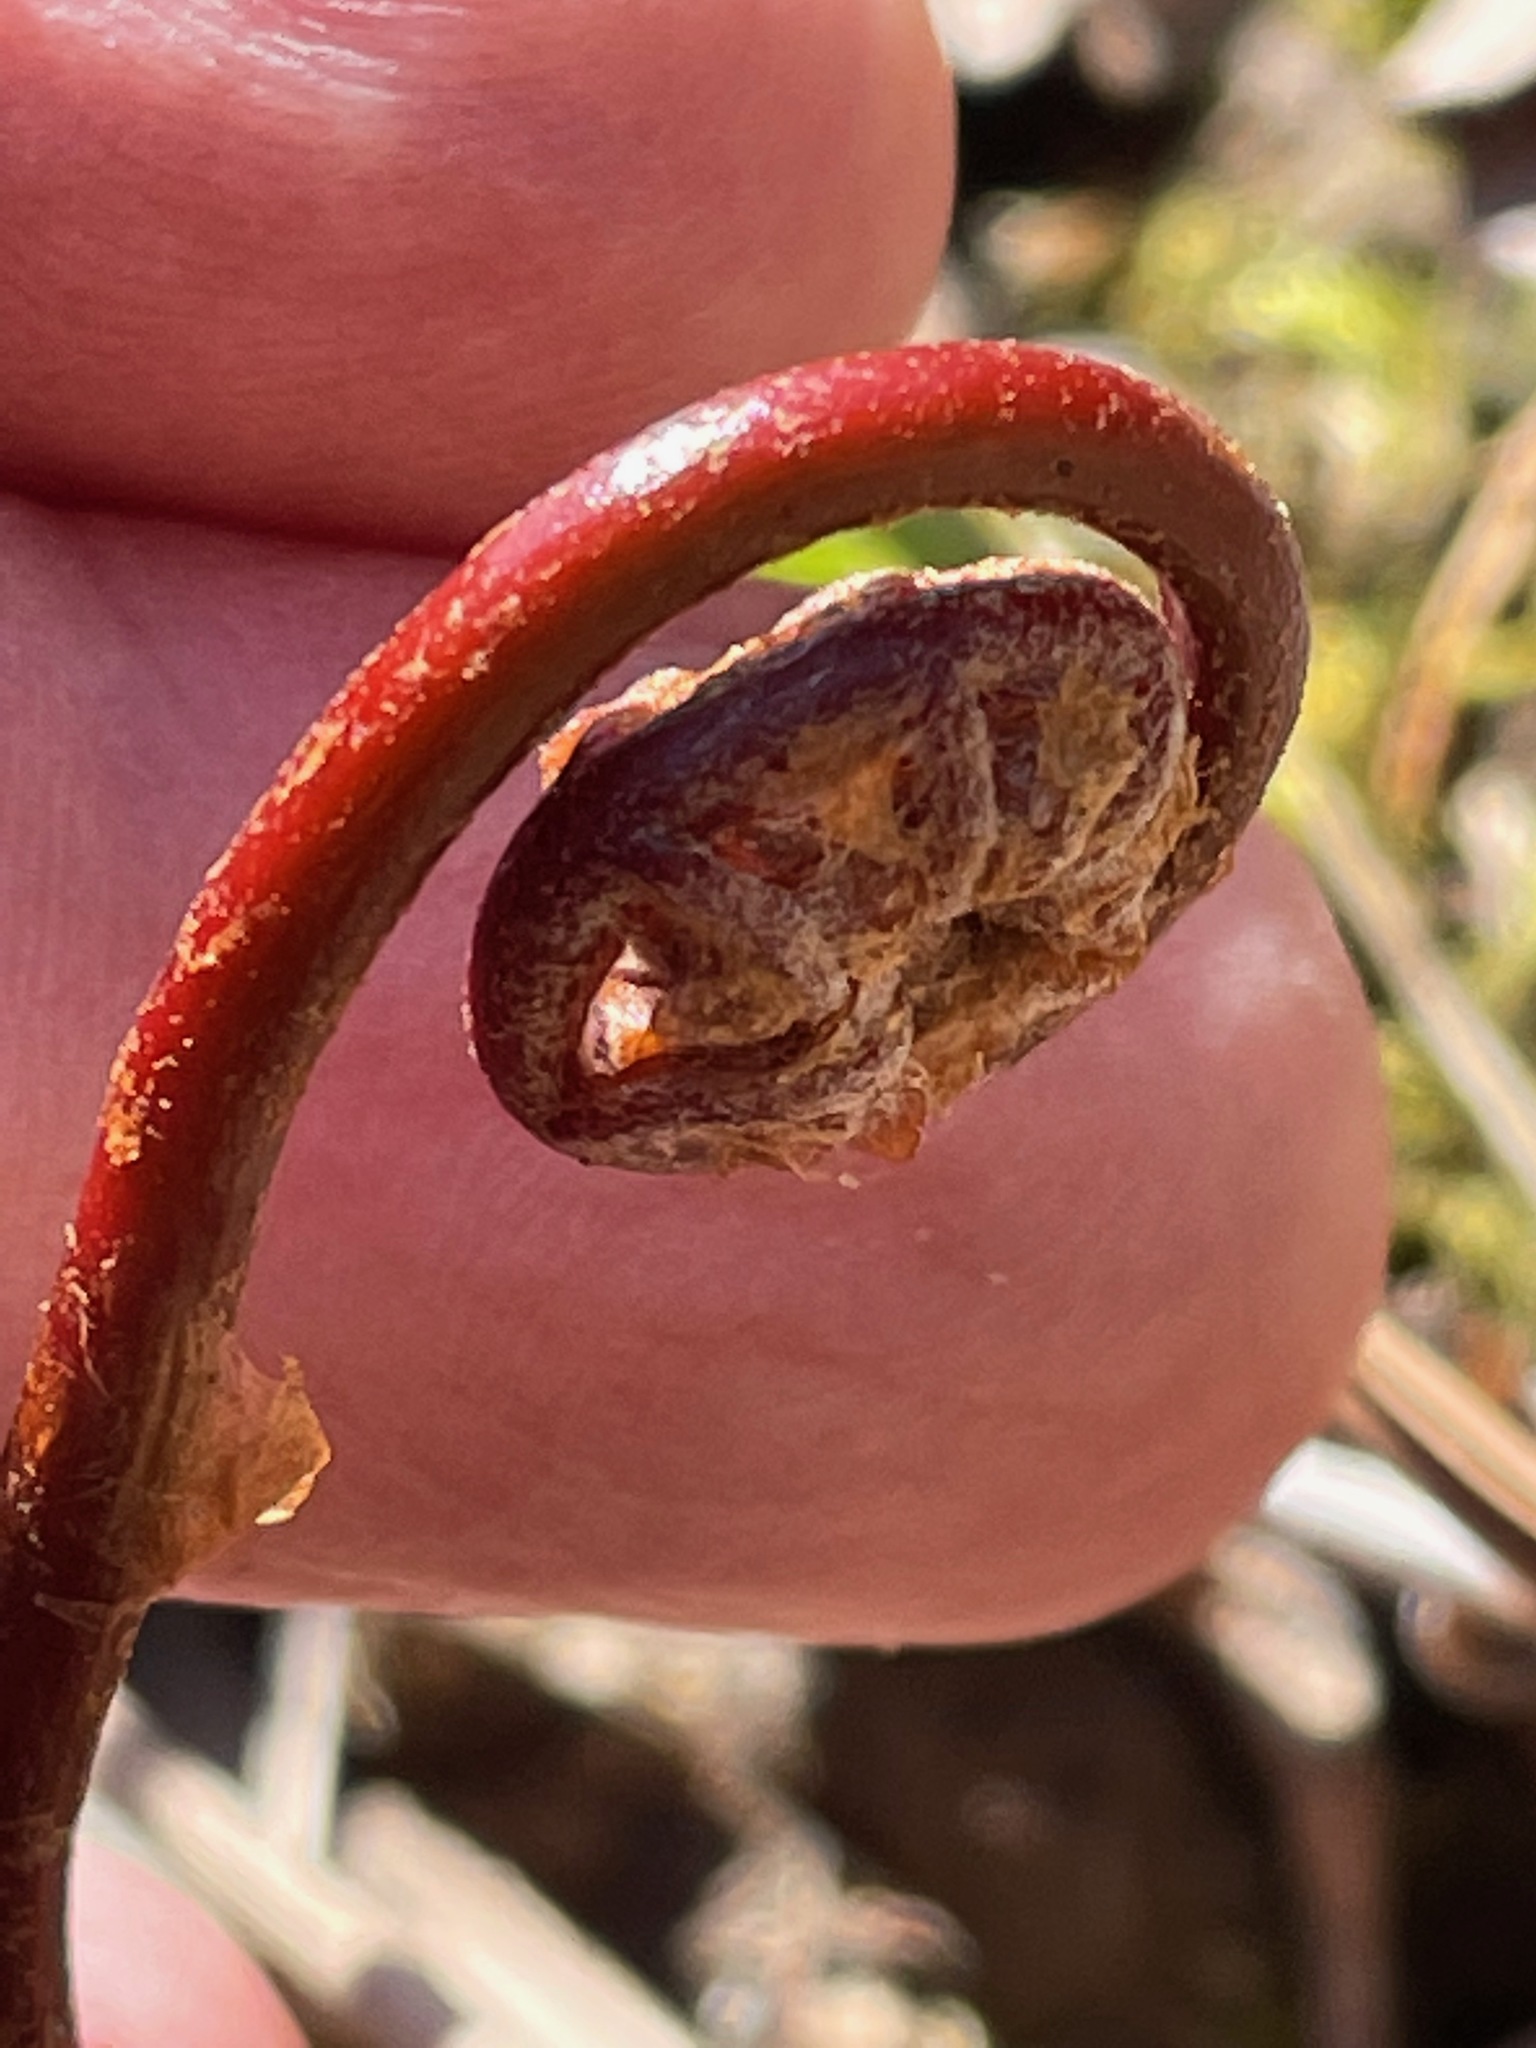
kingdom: Plantae
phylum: Tracheophyta
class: Polypodiopsida
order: Polypodiales
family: Onocleaceae
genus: Onoclea
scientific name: Onoclea sensibilis
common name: Sensitive fern
